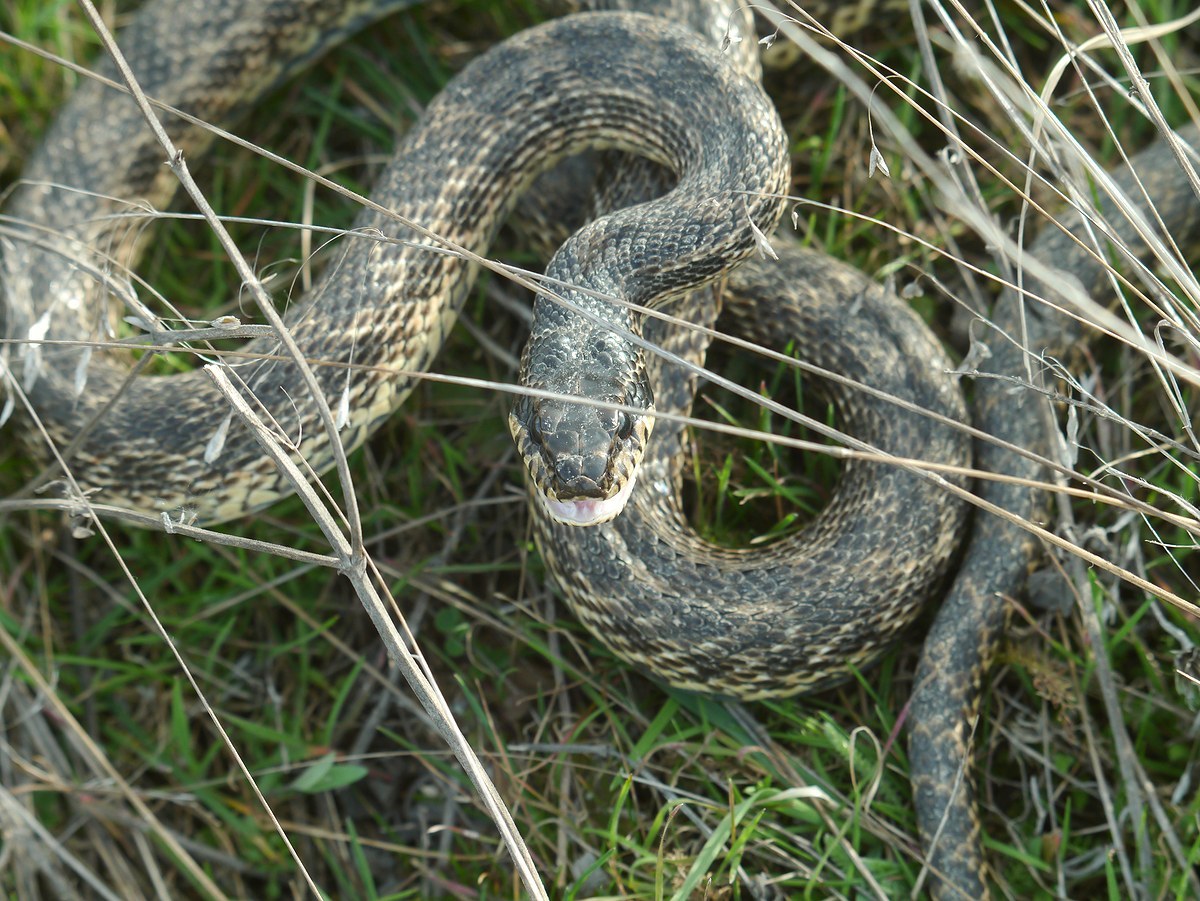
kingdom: Animalia
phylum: Chordata
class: Squamata
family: Colubridae
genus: Elaphe
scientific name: Elaphe sauromates
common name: Eastern four-lined ratsnake
